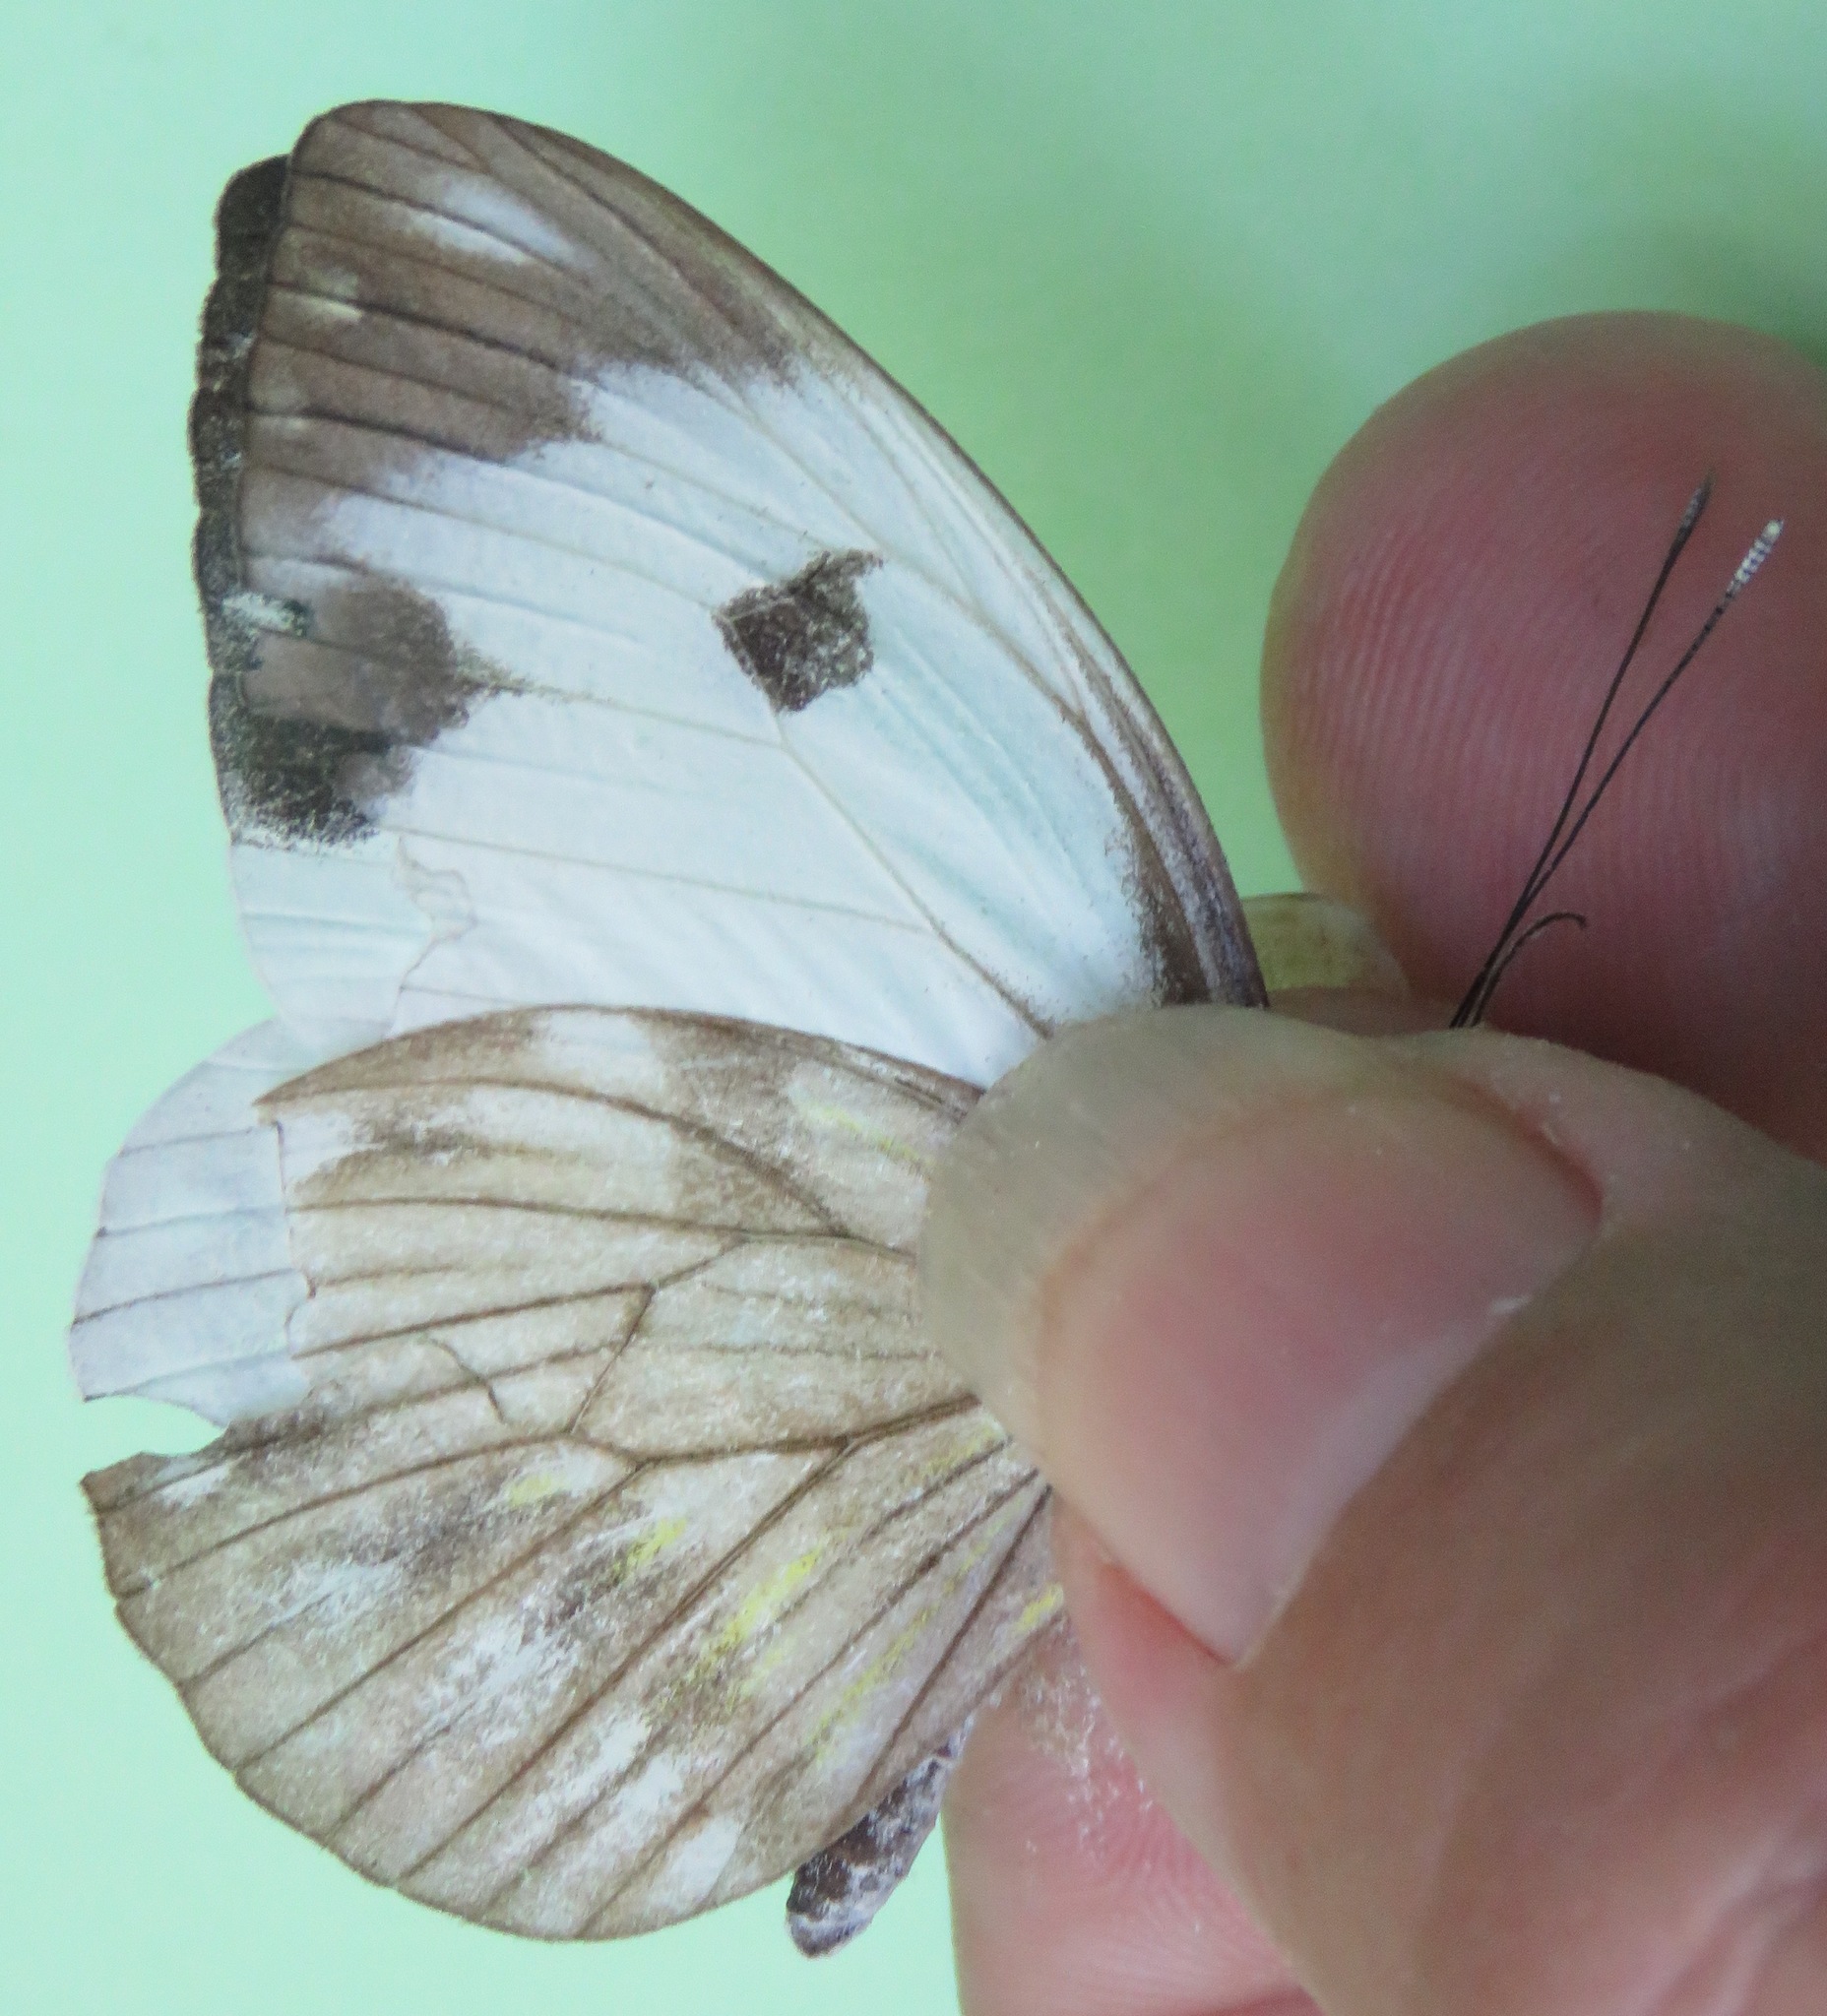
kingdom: Animalia
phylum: Arthropoda
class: Insecta
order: Lepidoptera
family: Pieridae
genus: Pieriballia
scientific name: Pieriballia viardi
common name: Painted white
